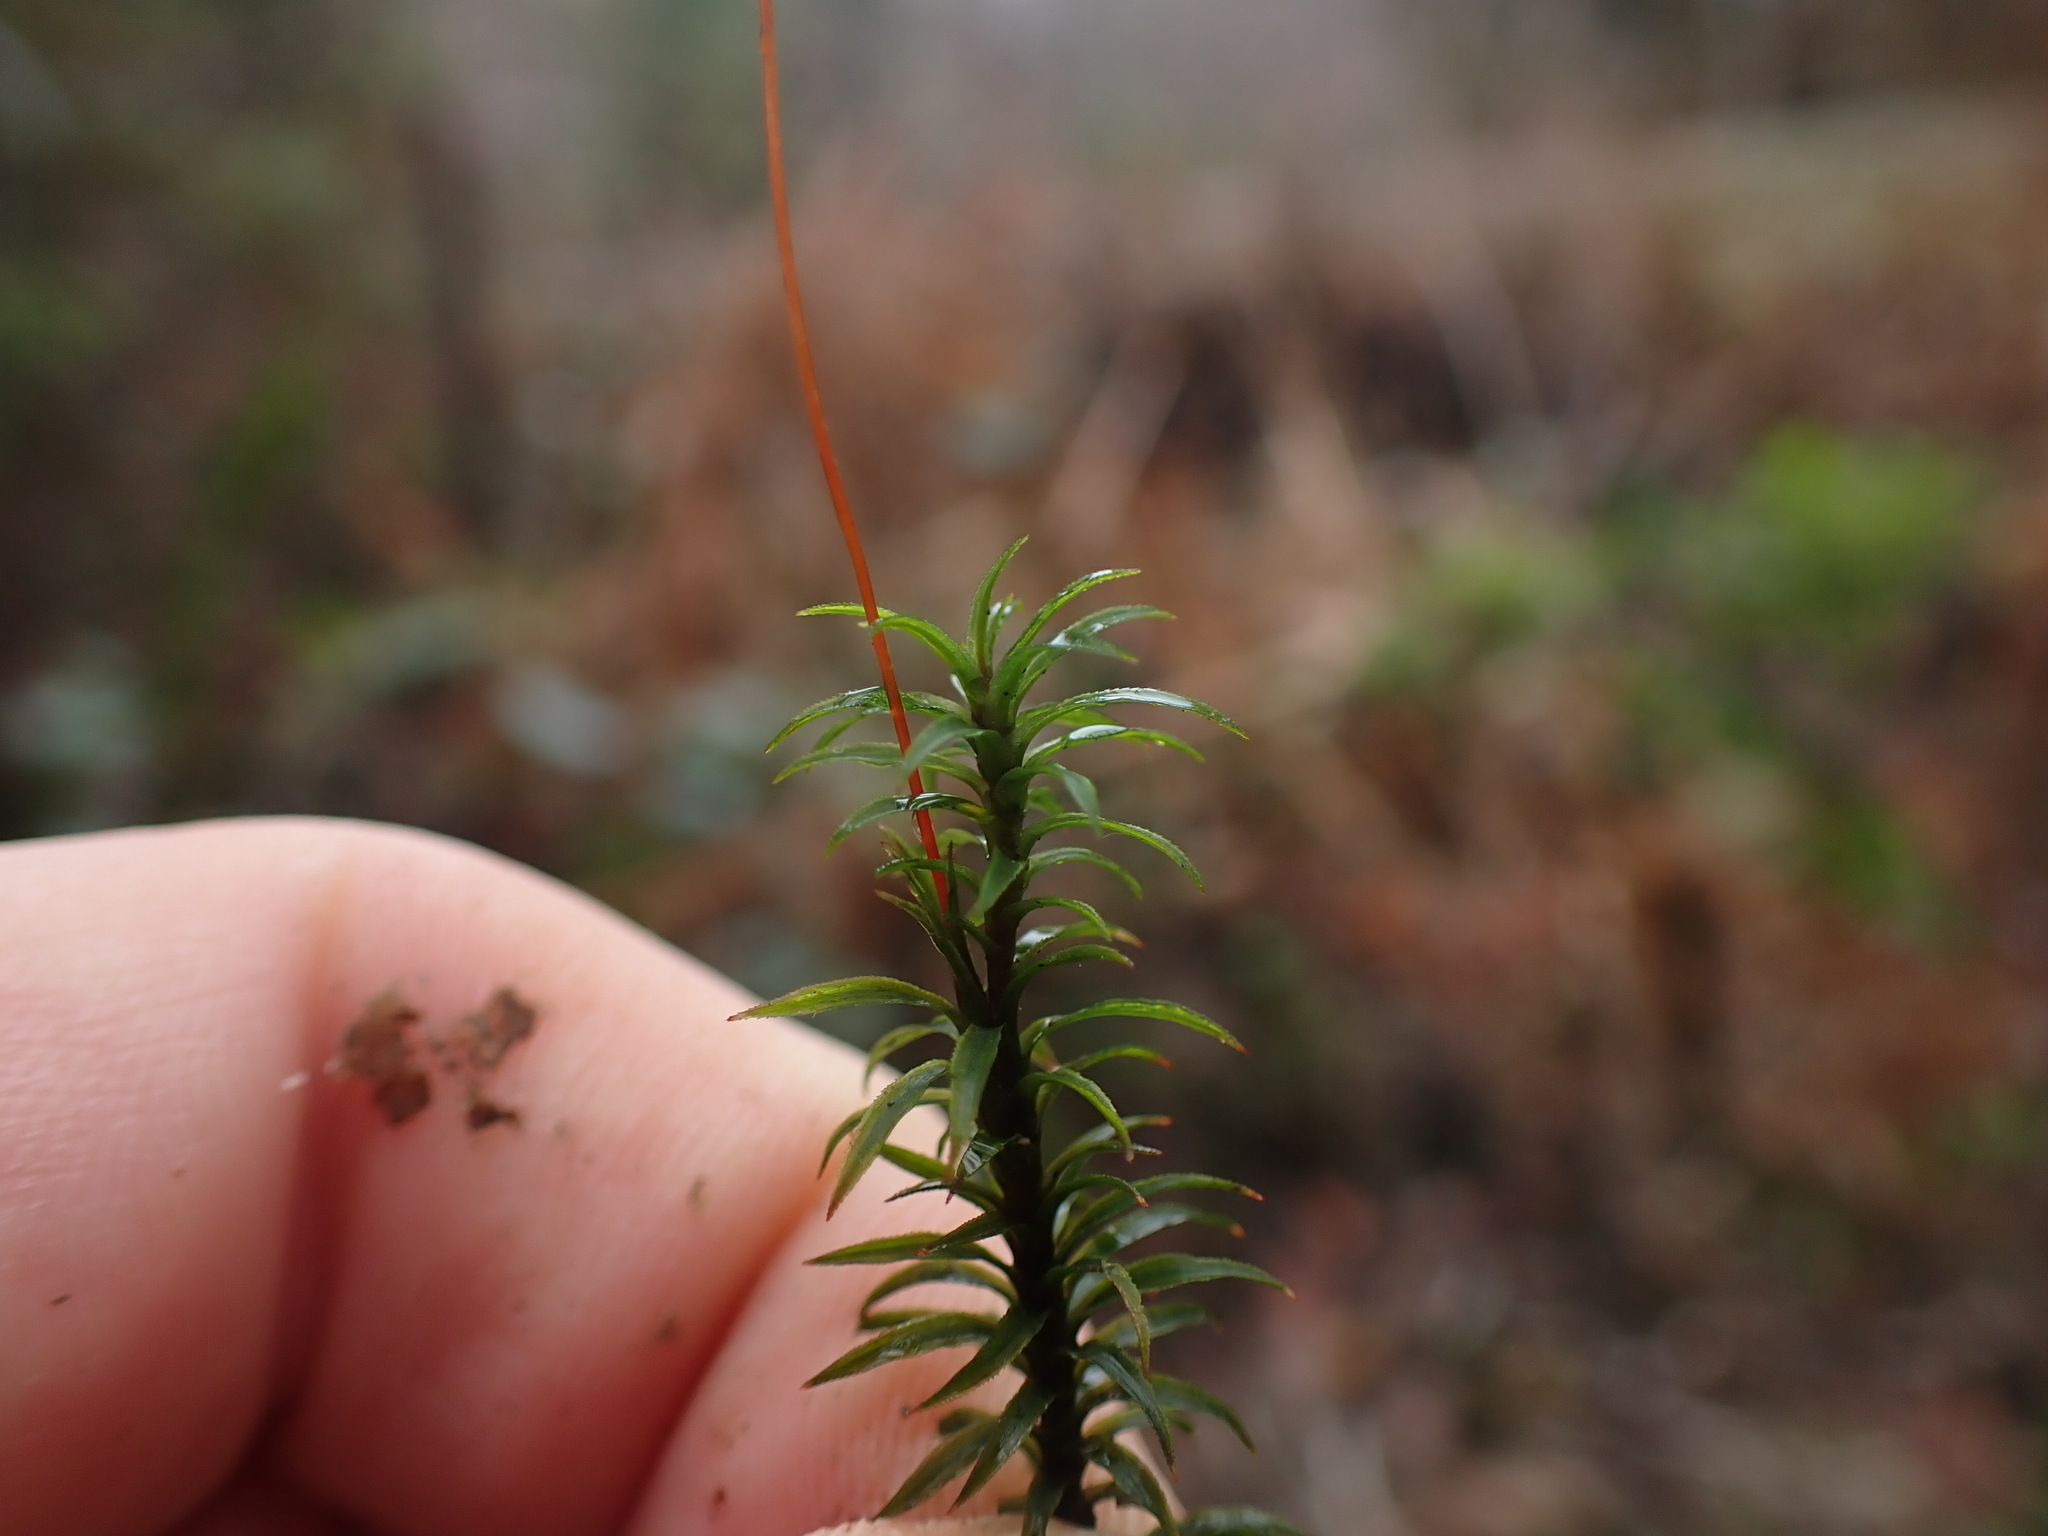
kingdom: Plantae
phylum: Bryophyta
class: Polytrichopsida
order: Polytrichales
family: Polytrichaceae
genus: Pogonatum
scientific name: Pogonatum contortum
